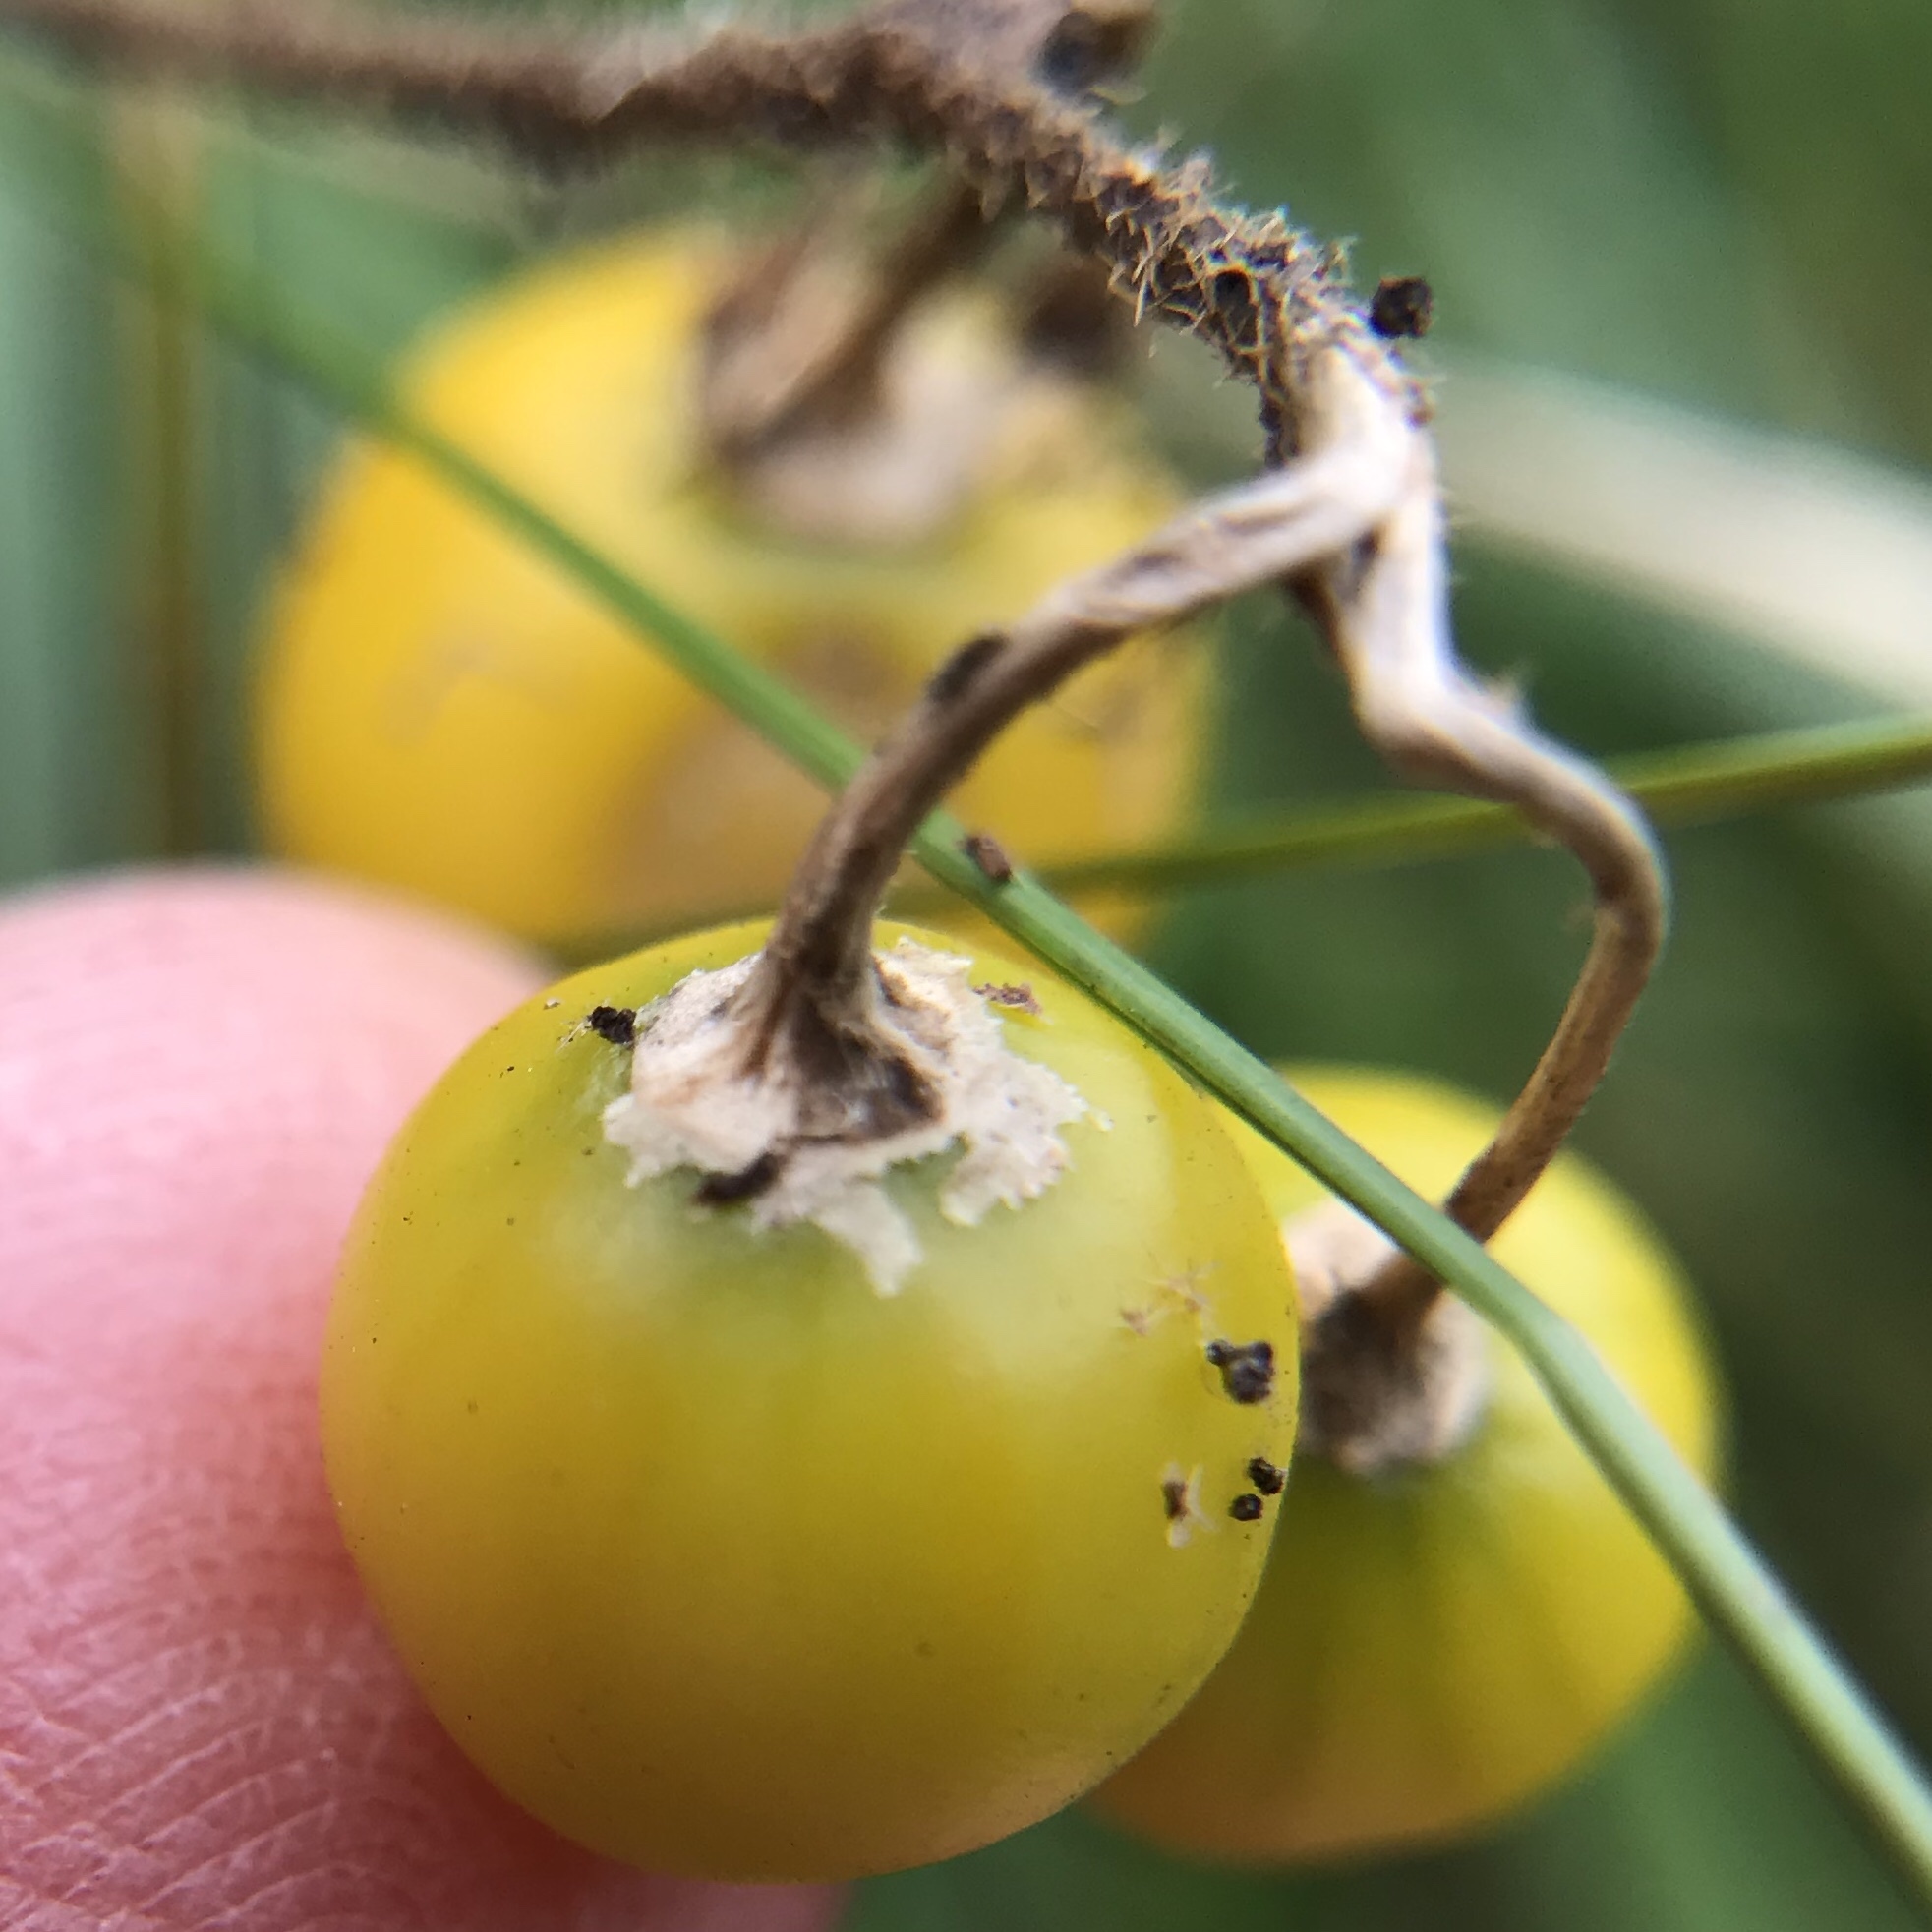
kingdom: Plantae
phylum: Tracheophyta
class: Magnoliopsida
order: Solanales
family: Solanaceae
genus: Solanum
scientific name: Solanum carolinense
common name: Horse-nettle
